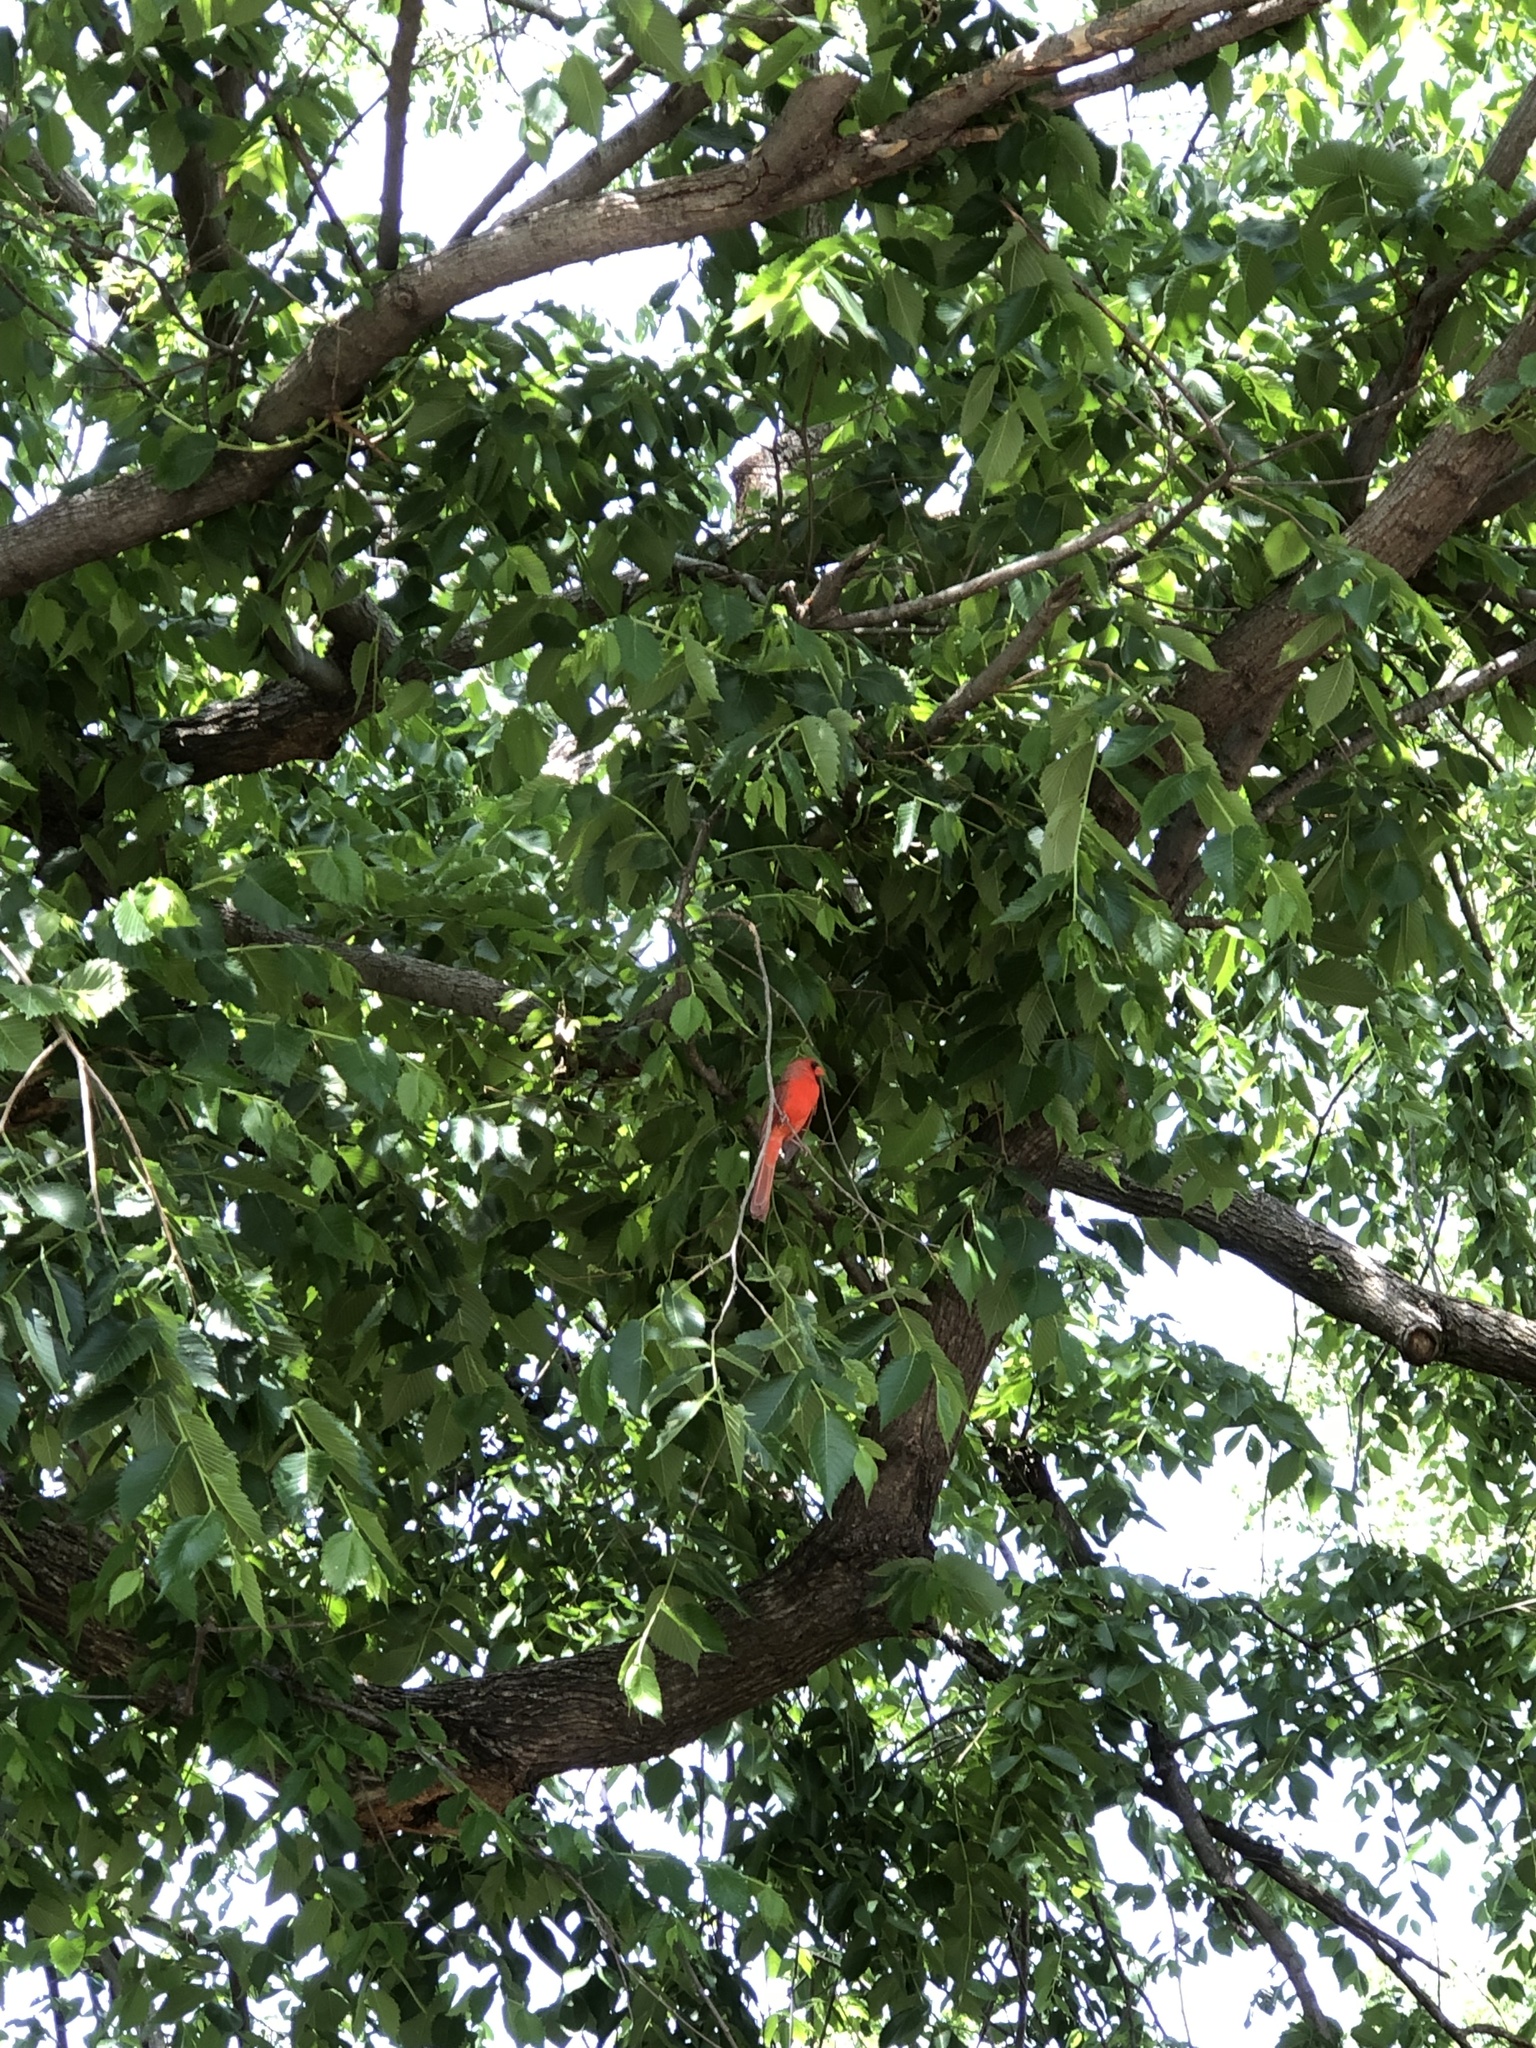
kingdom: Animalia
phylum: Chordata
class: Aves
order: Passeriformes
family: Cardinalidae
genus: Cardinalis
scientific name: Cardinalis cardinalis
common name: Northern cardinal
